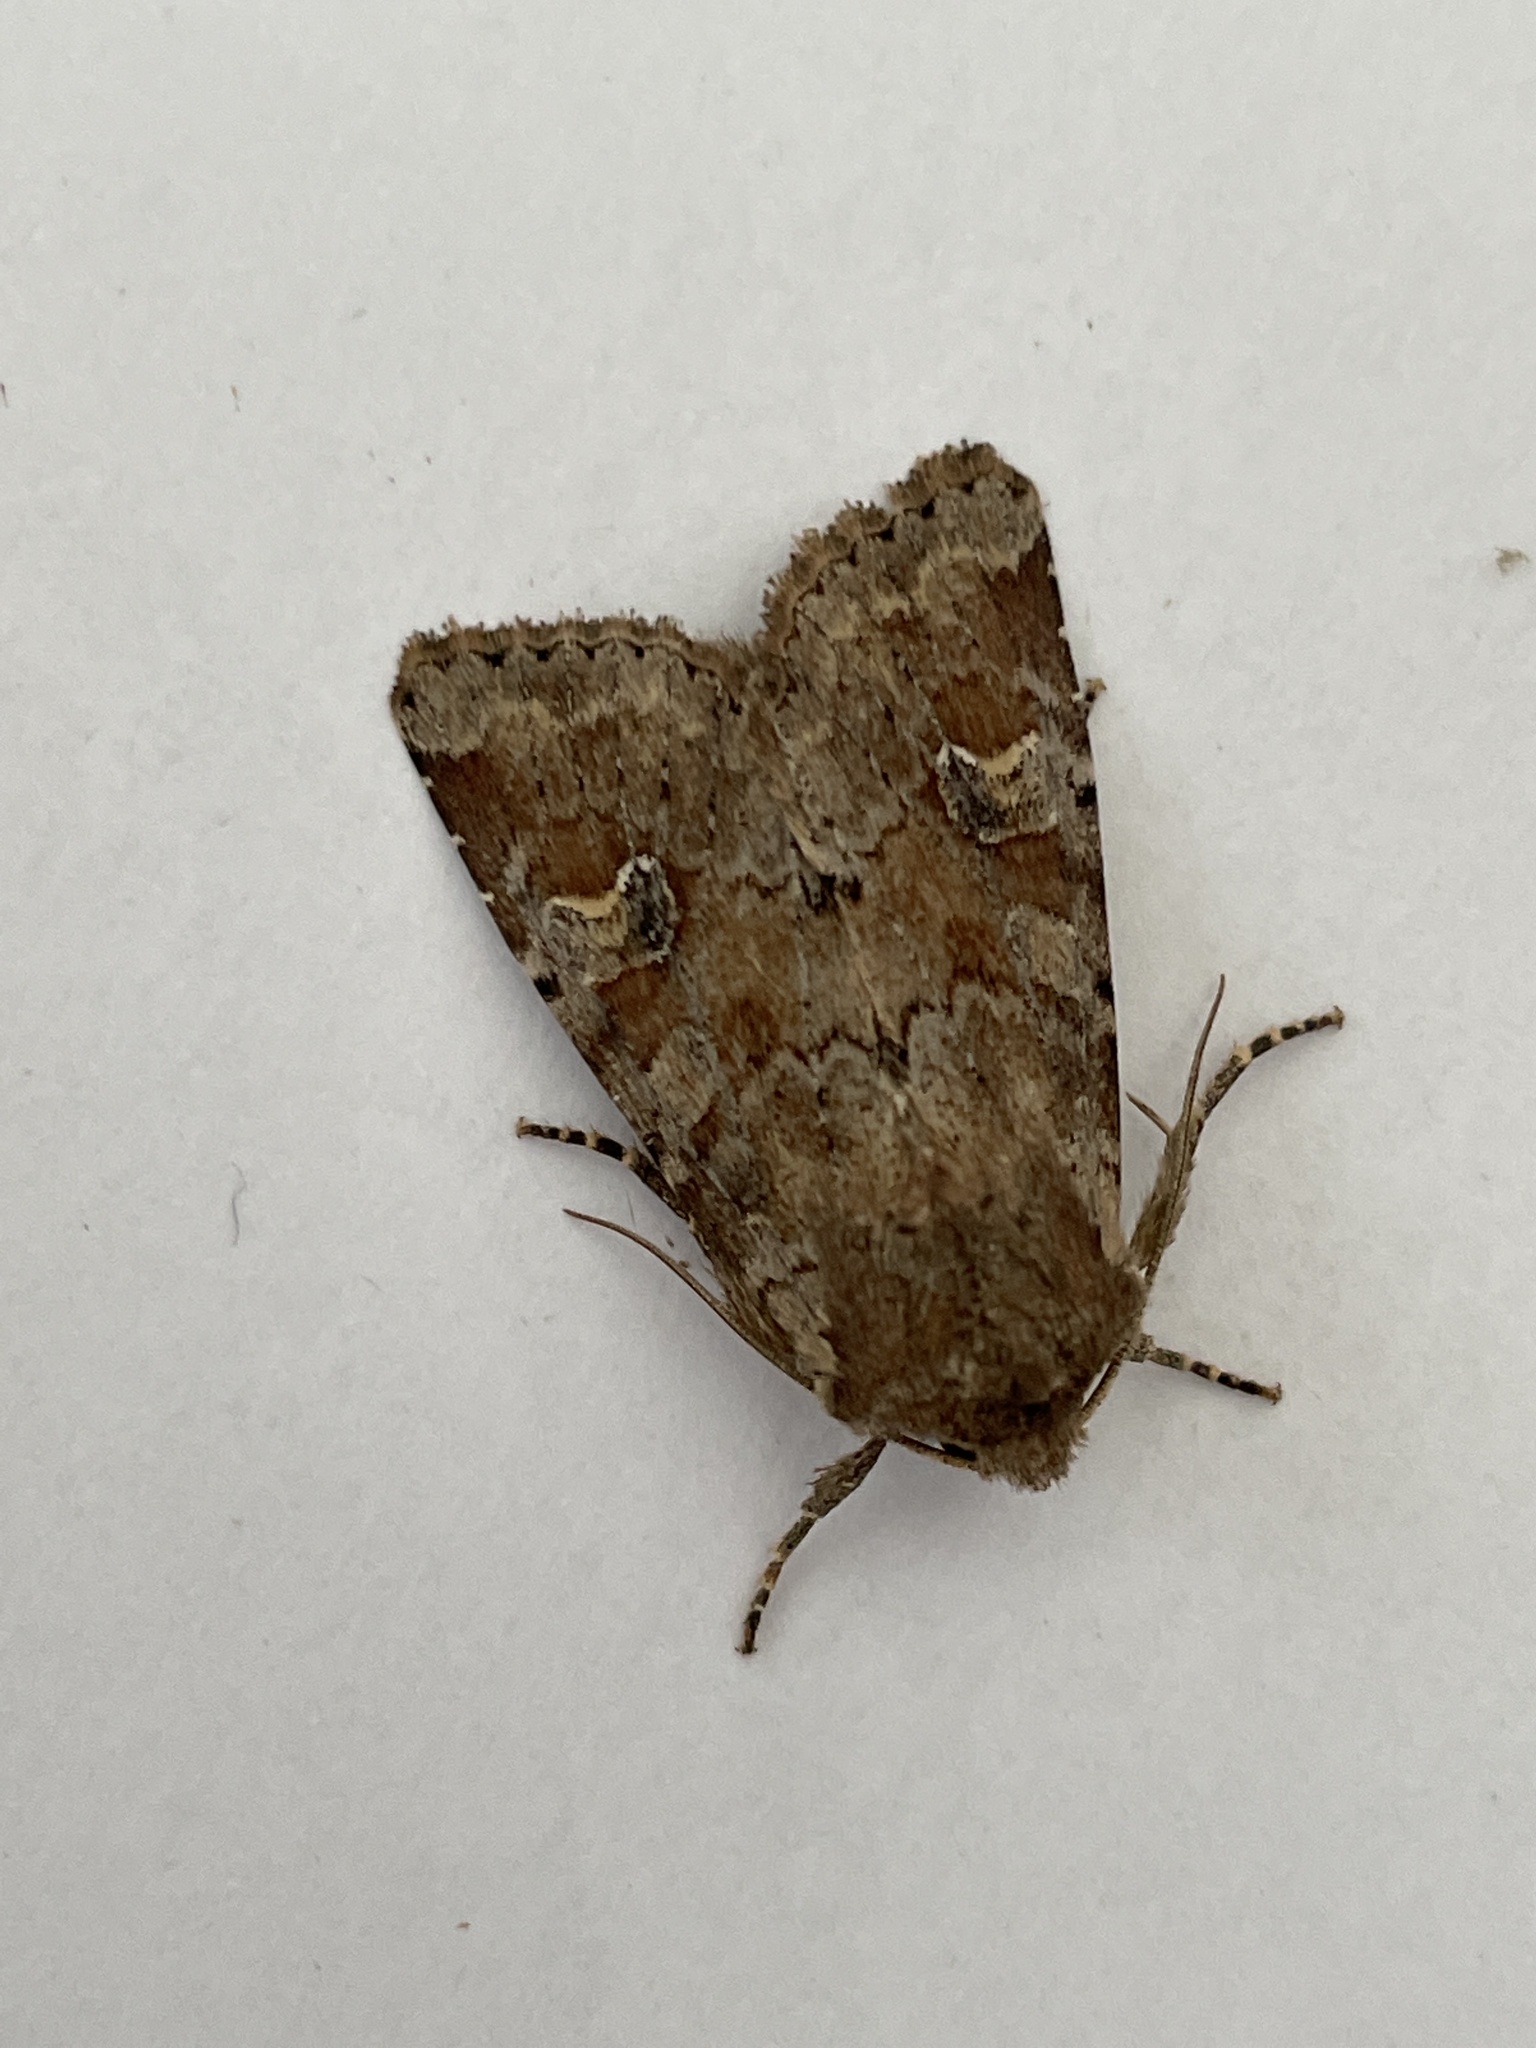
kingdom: Animalia
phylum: Arthropoda
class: Insecta
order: Lepidoptera
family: Noctuidae
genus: Apamea
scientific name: Apamea sordens
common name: Rustic shoulder-knot
